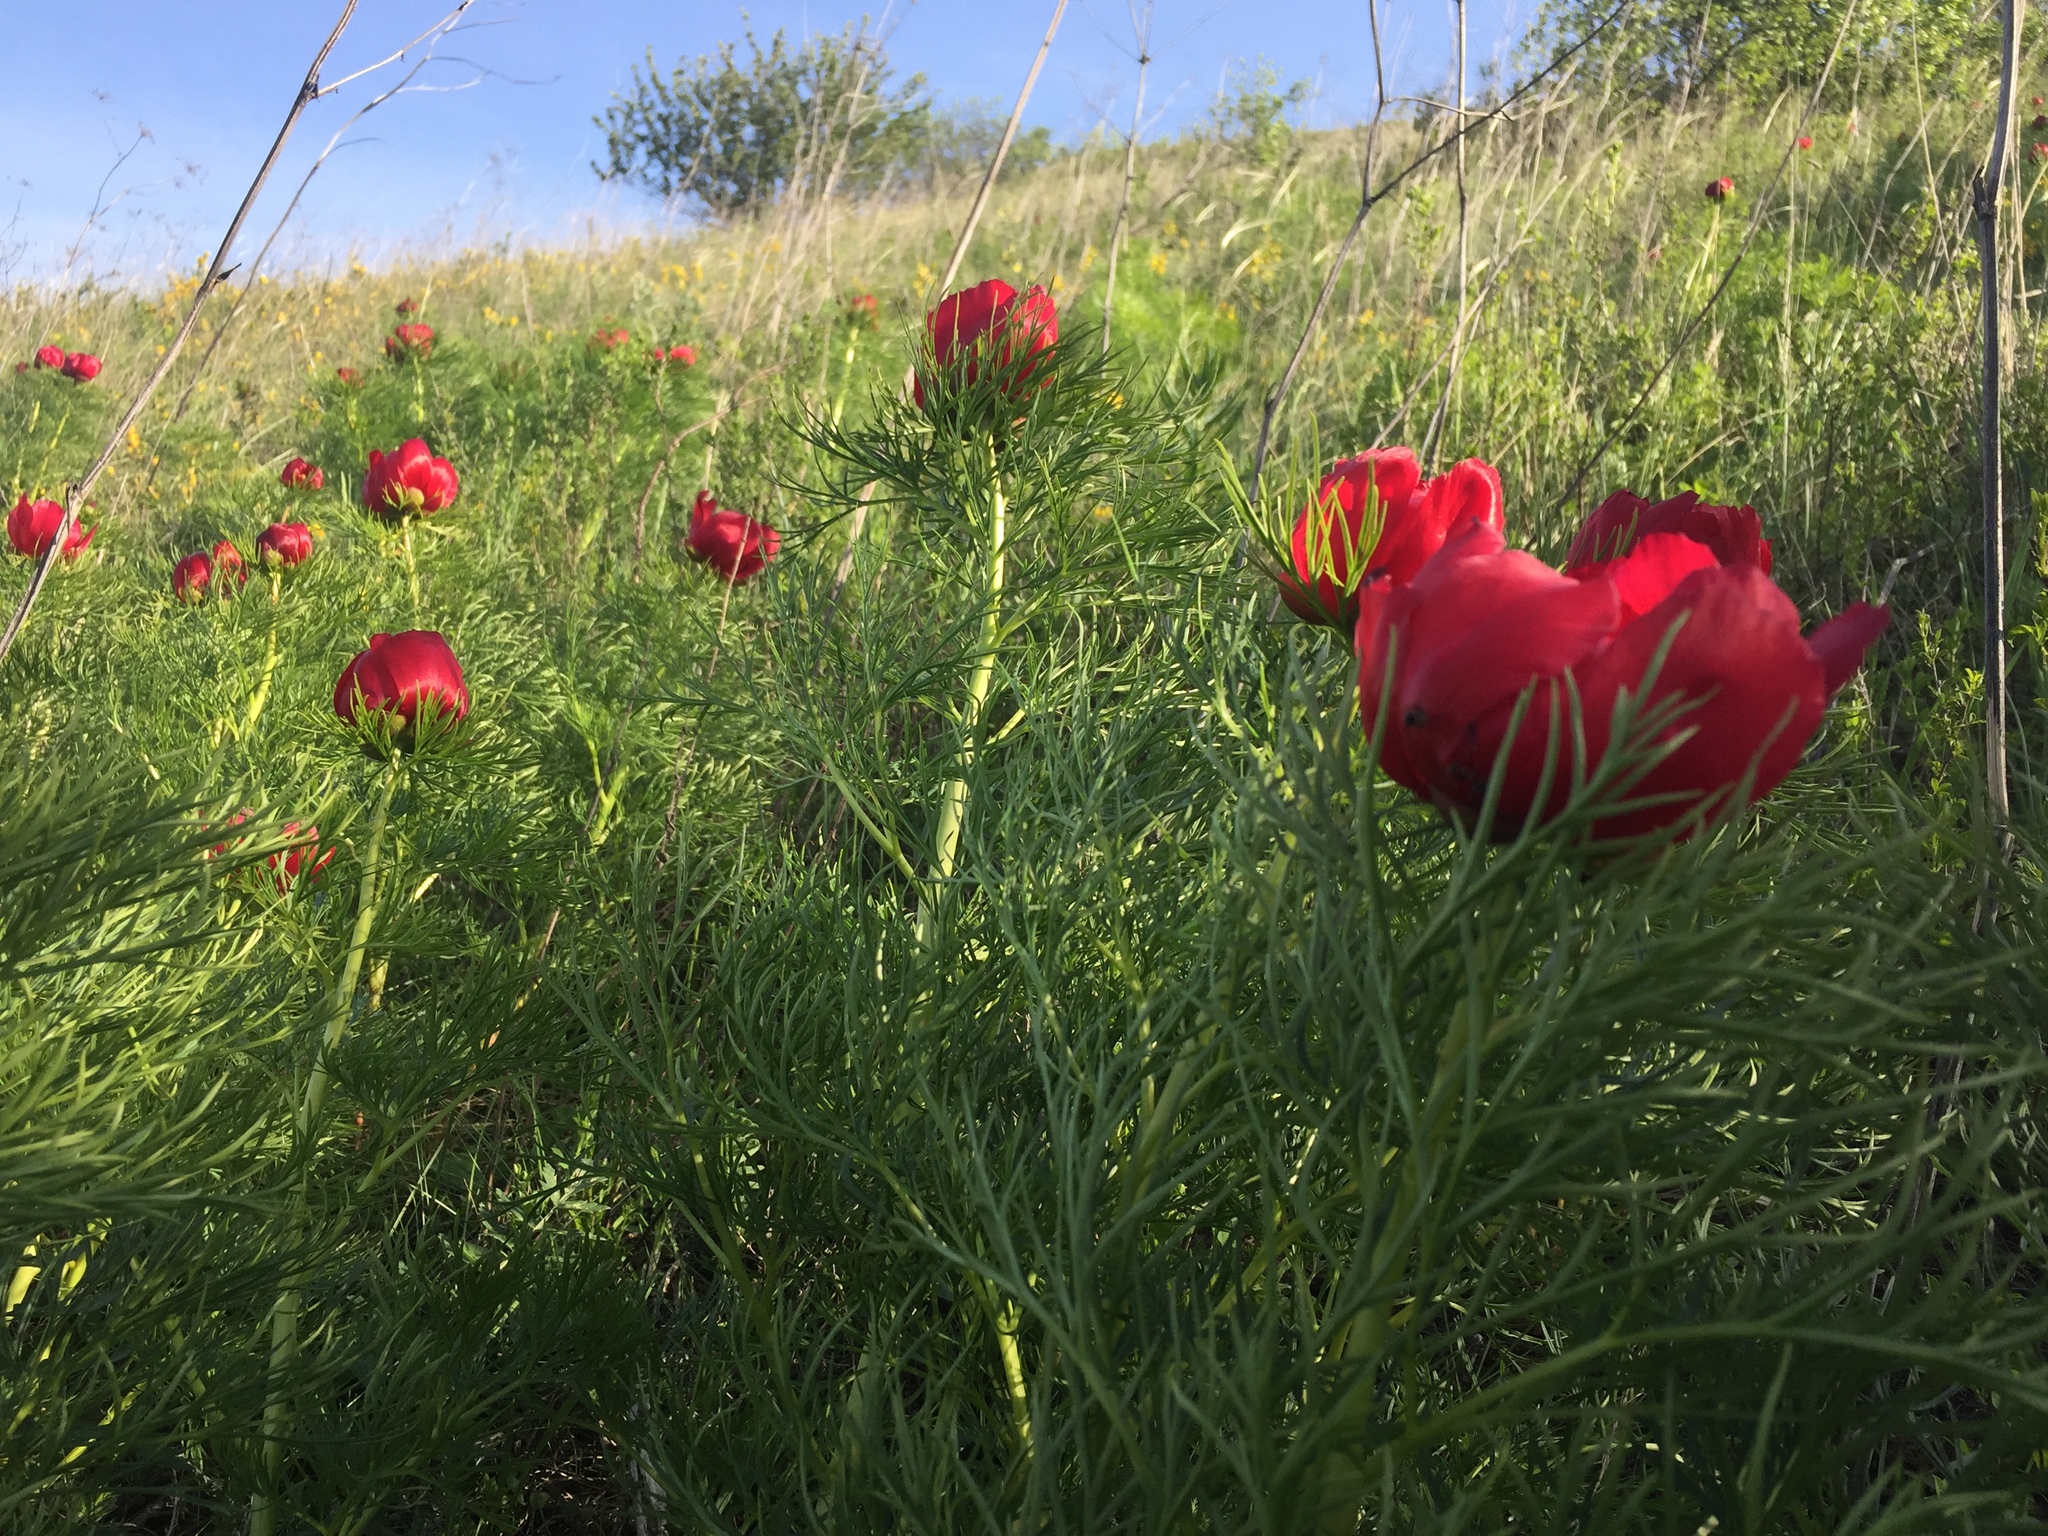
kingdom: Plantae
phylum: Tracheophyta
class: Magnoliopsida
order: Saxifragales
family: Paeoniaceae
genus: Paeonia
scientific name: Paeonia tenuifolia
